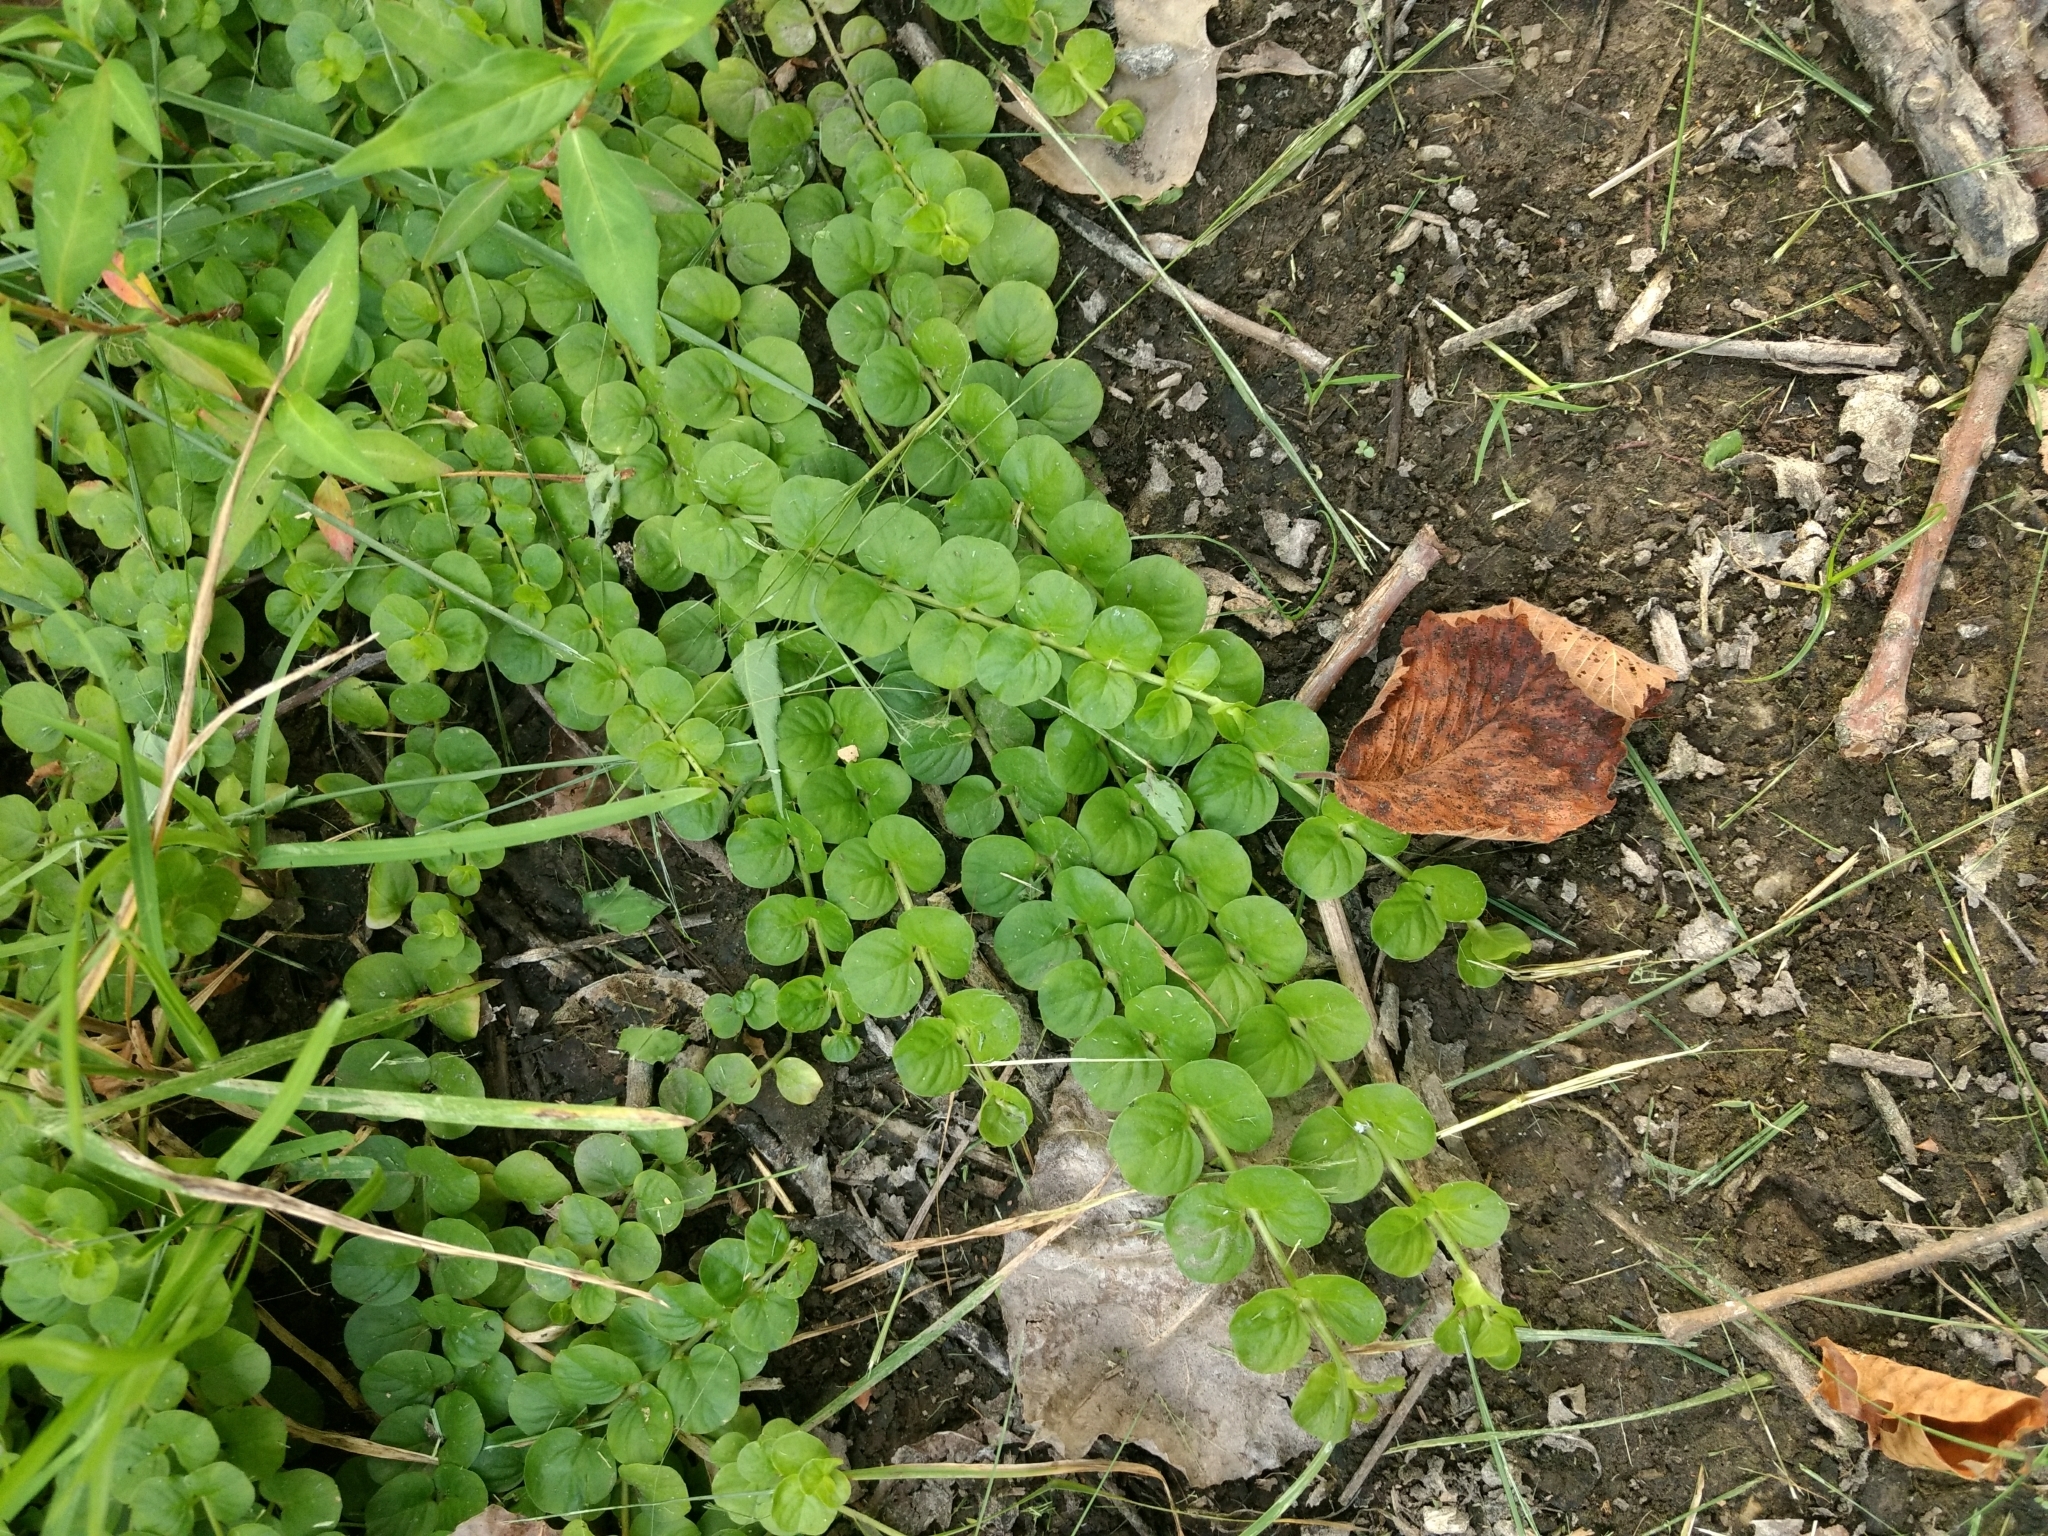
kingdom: Plantae
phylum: Tracheophyta
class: Magnoliopsida
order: Ericales
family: Primulaceae
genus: Lysimachia
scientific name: Lysimachia nummularia
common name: Moneywort
